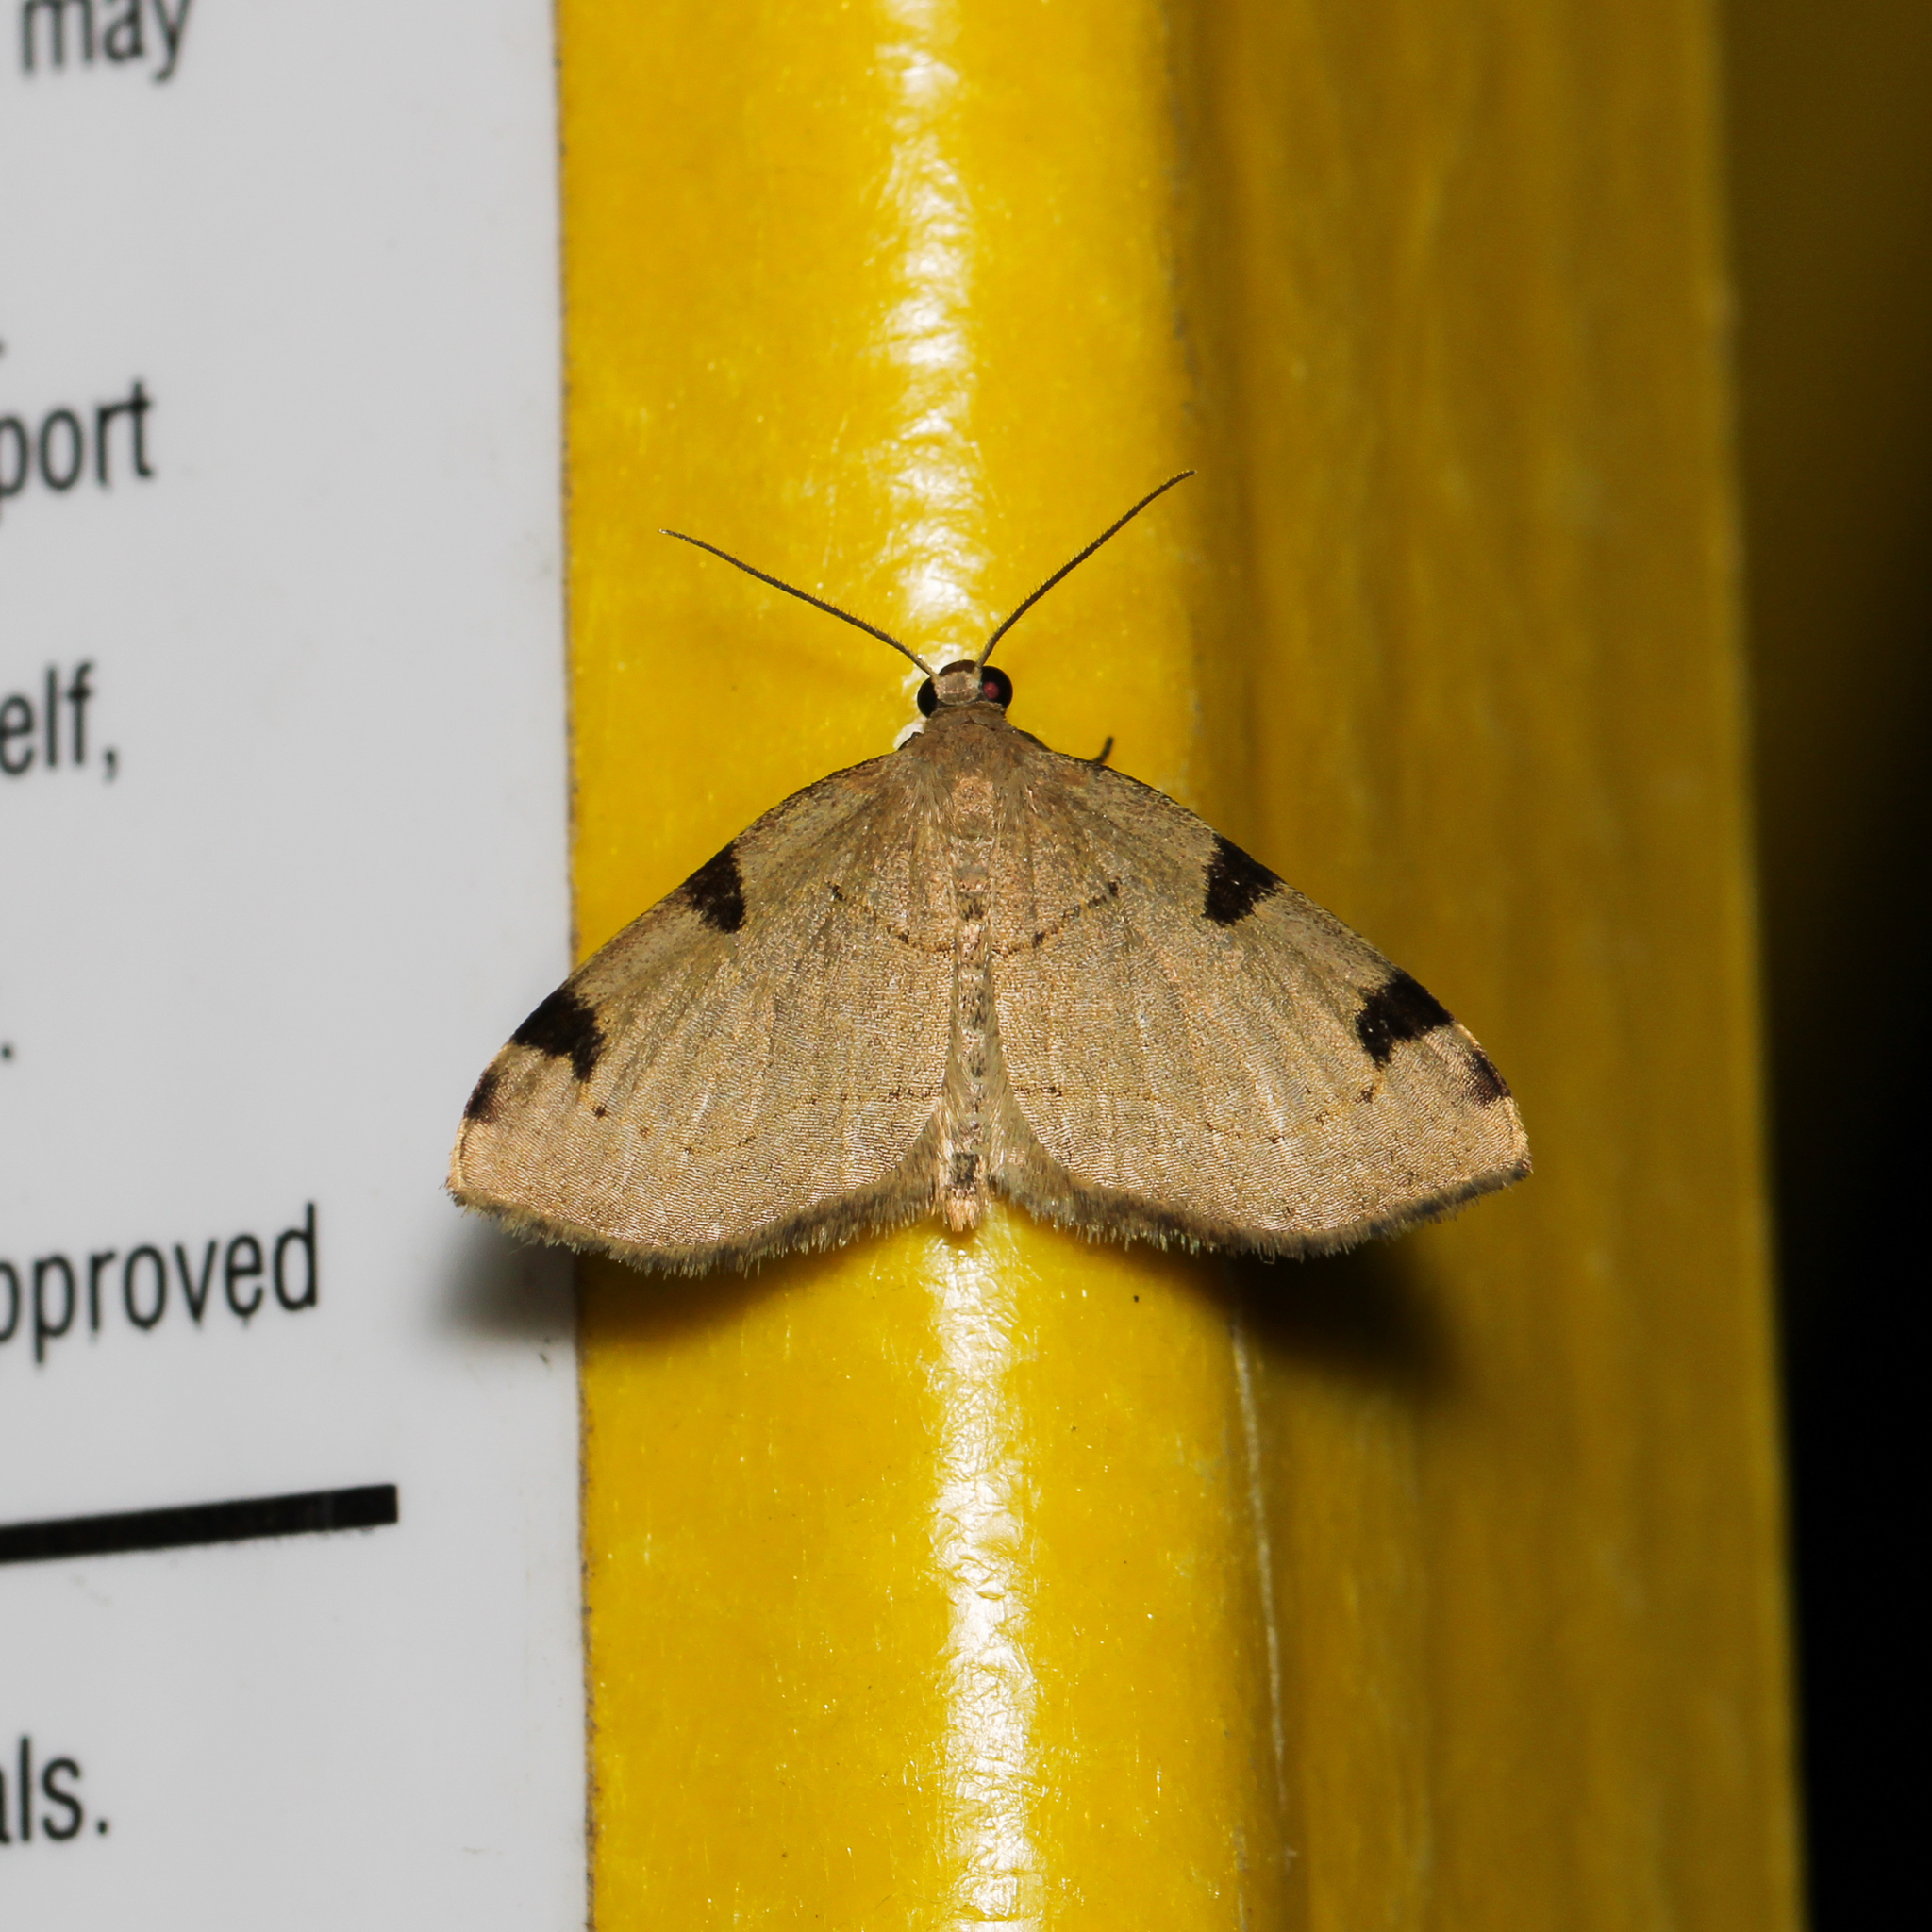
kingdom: Animalia
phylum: Arthropoda
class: Insecta
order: Lepidoptera
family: Geometridae
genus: Heterophleps
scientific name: Heterophleps triguttaria
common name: Three-spotted fillip
